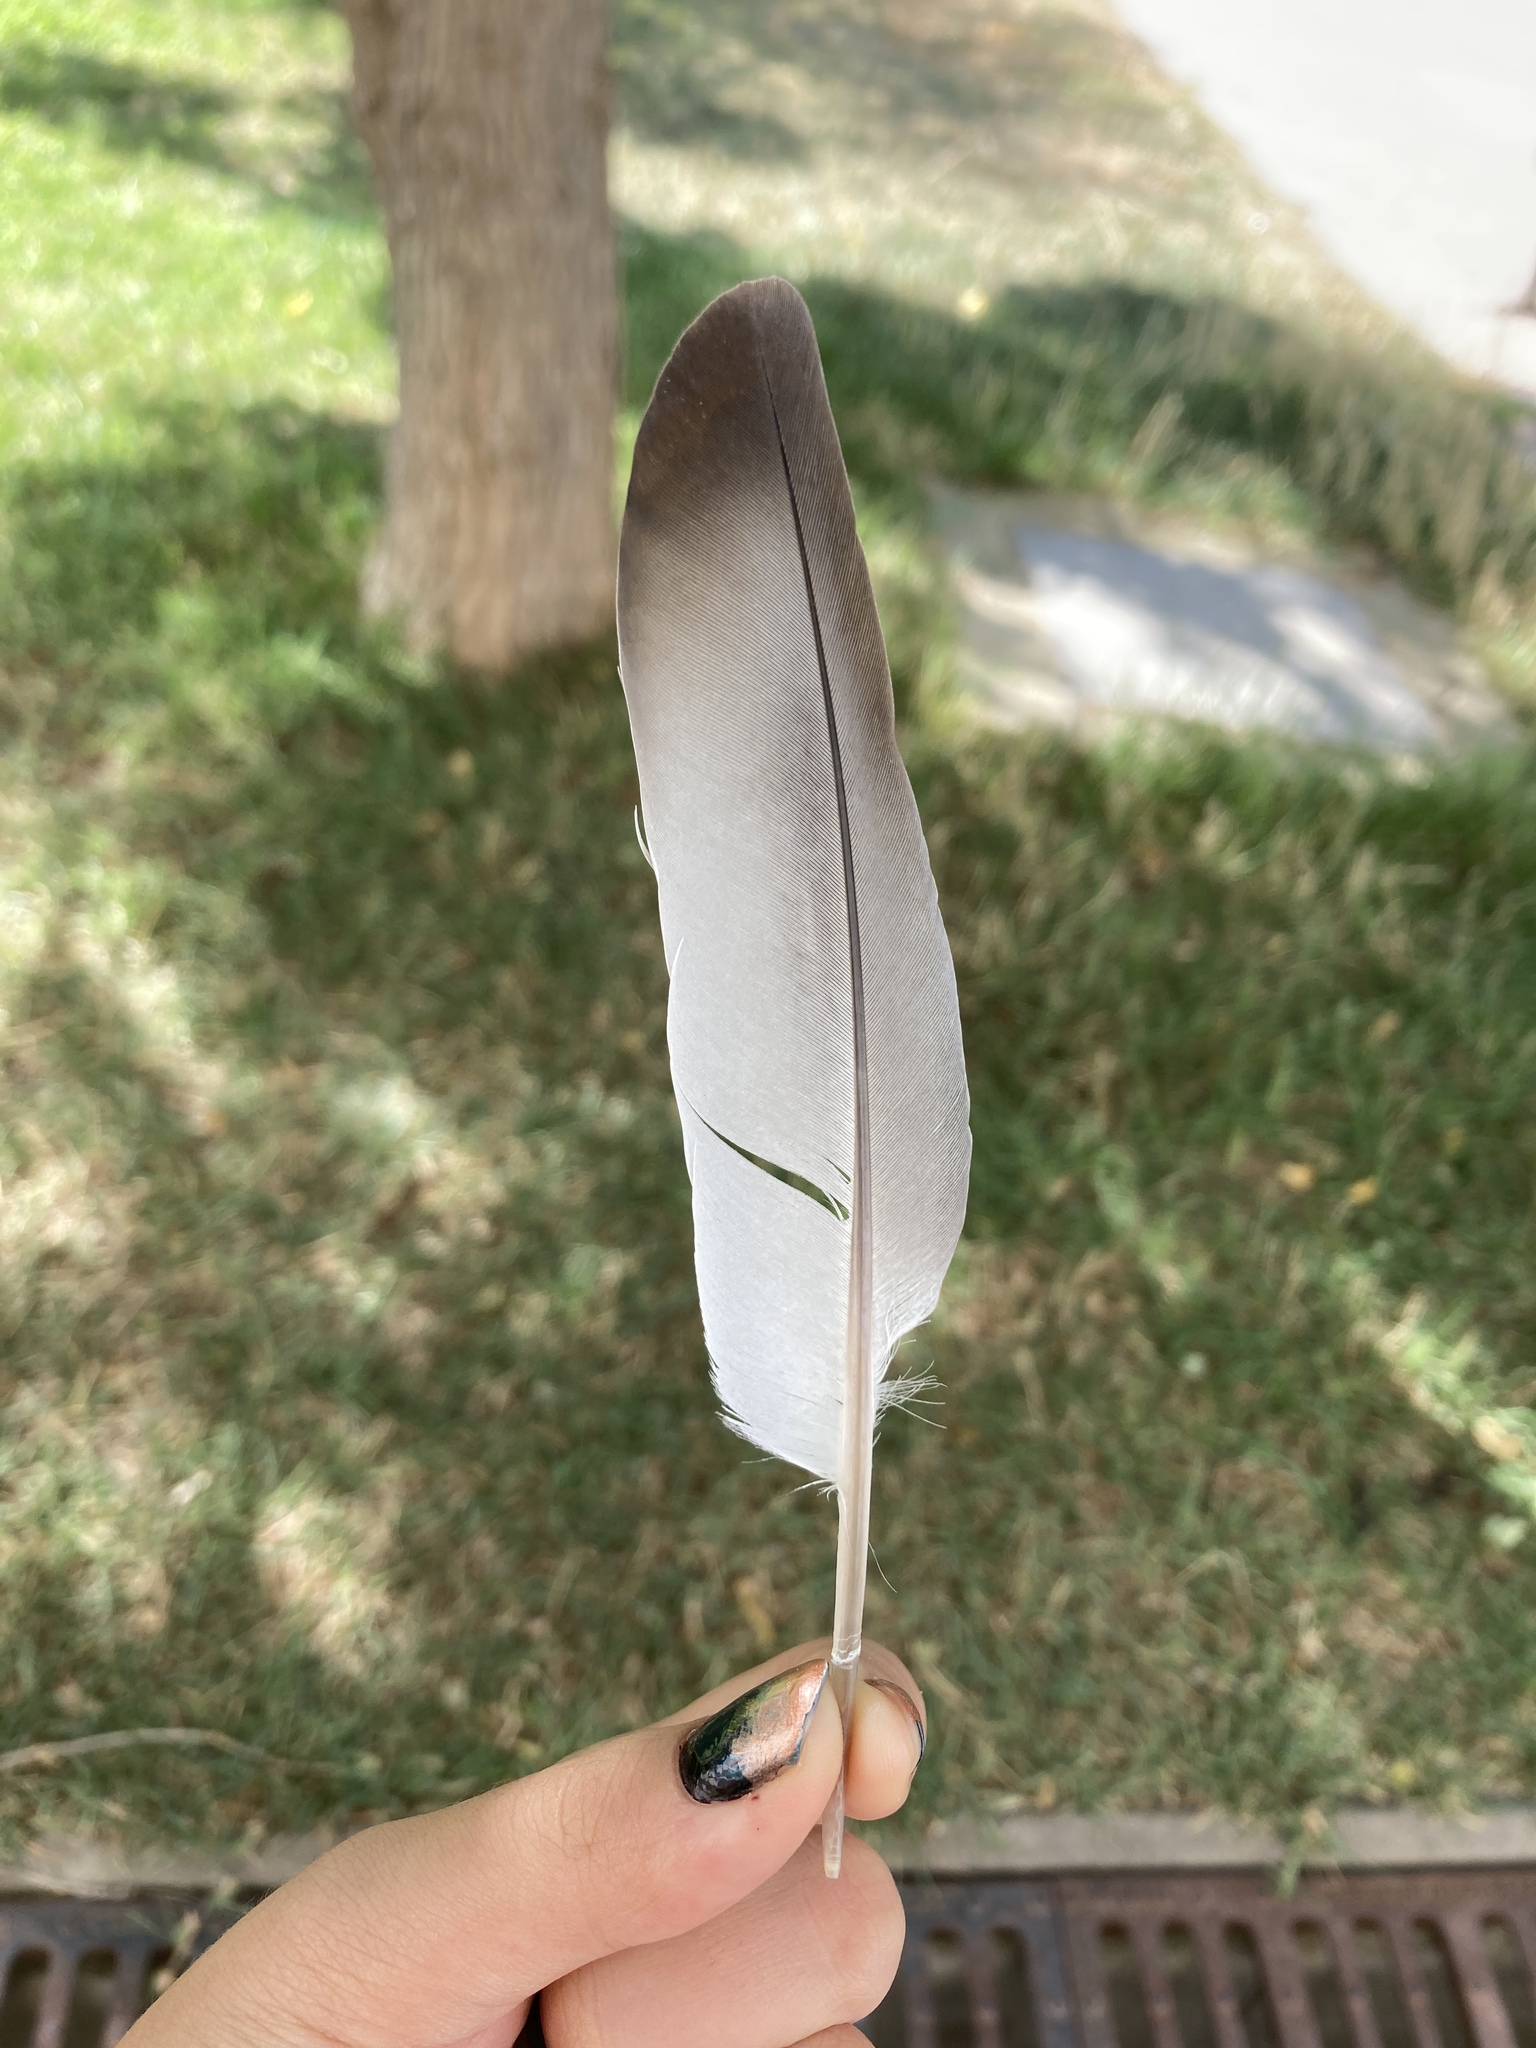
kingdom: Animalia
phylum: Chordata
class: Aves
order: Columbiformes
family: Columbidae
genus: Columba
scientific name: Columba livia
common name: Rock pigeon
